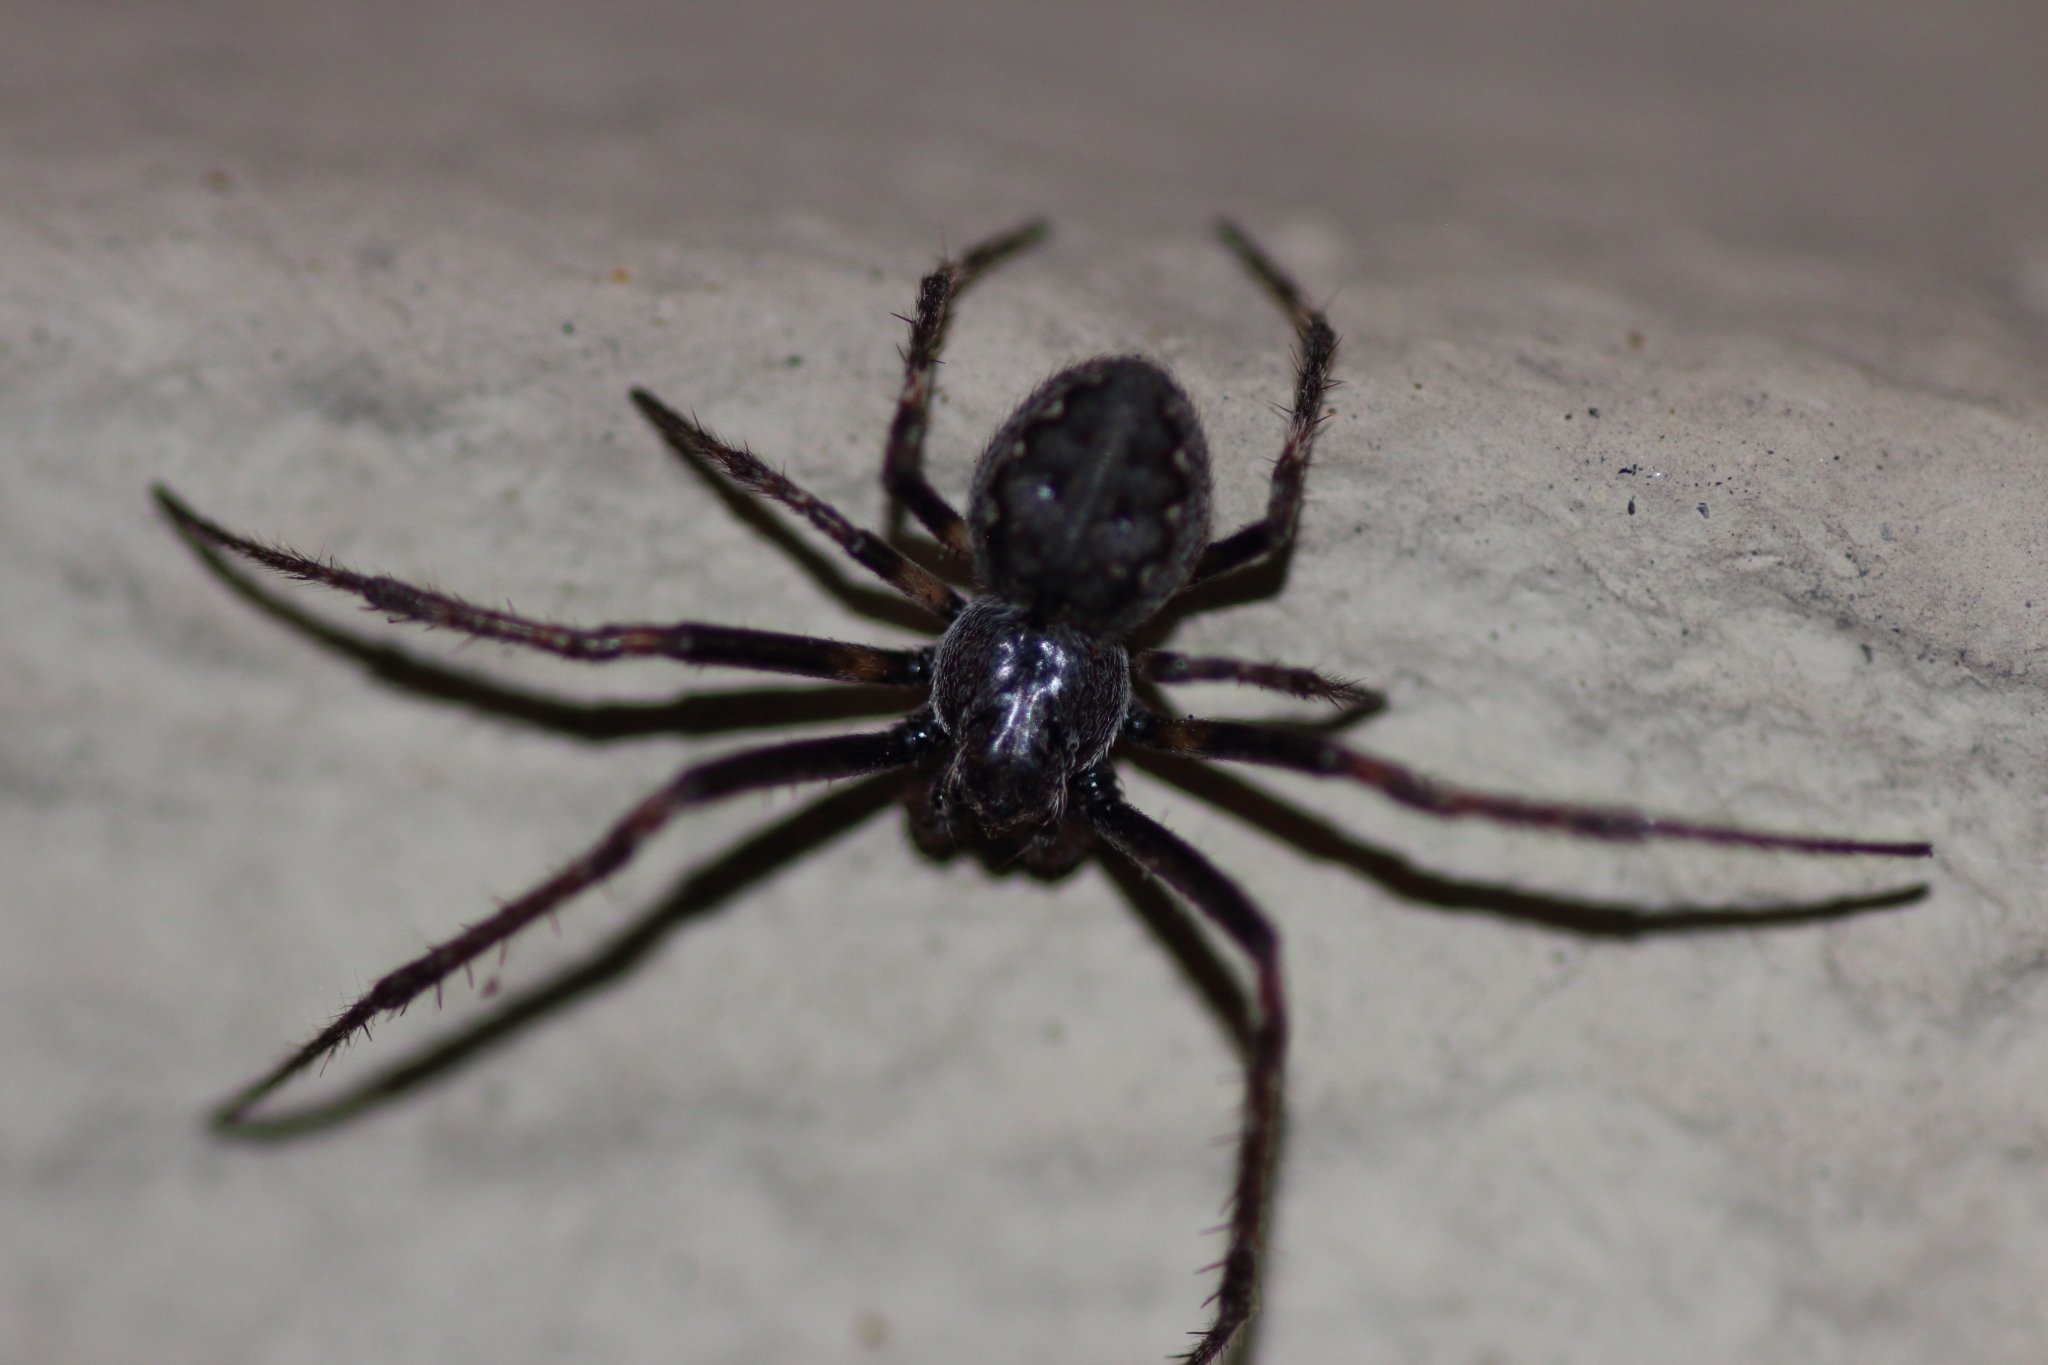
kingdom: Animalia
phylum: Arthropoda
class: Arachnida
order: Araneae
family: Araneidae
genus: Nuctenea
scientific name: Nuctenea umbratica
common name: Toad spider
